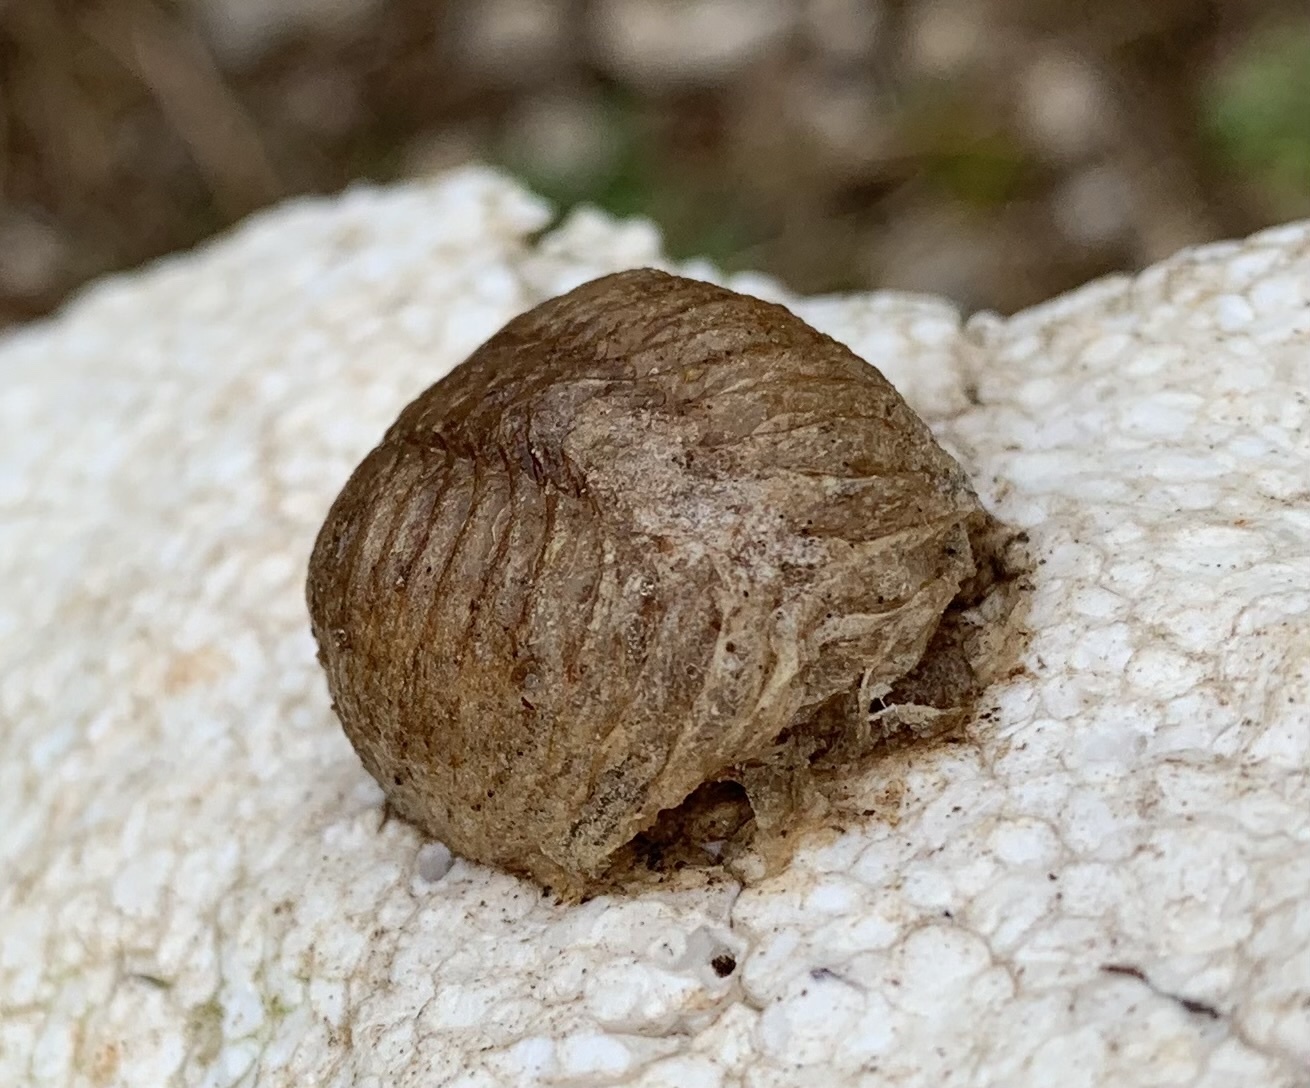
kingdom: Animalia
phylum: Arthropoda
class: Insecta
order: Mantodea
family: Mantidae
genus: Mantis
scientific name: Mantis religiosa
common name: Praying mantis
